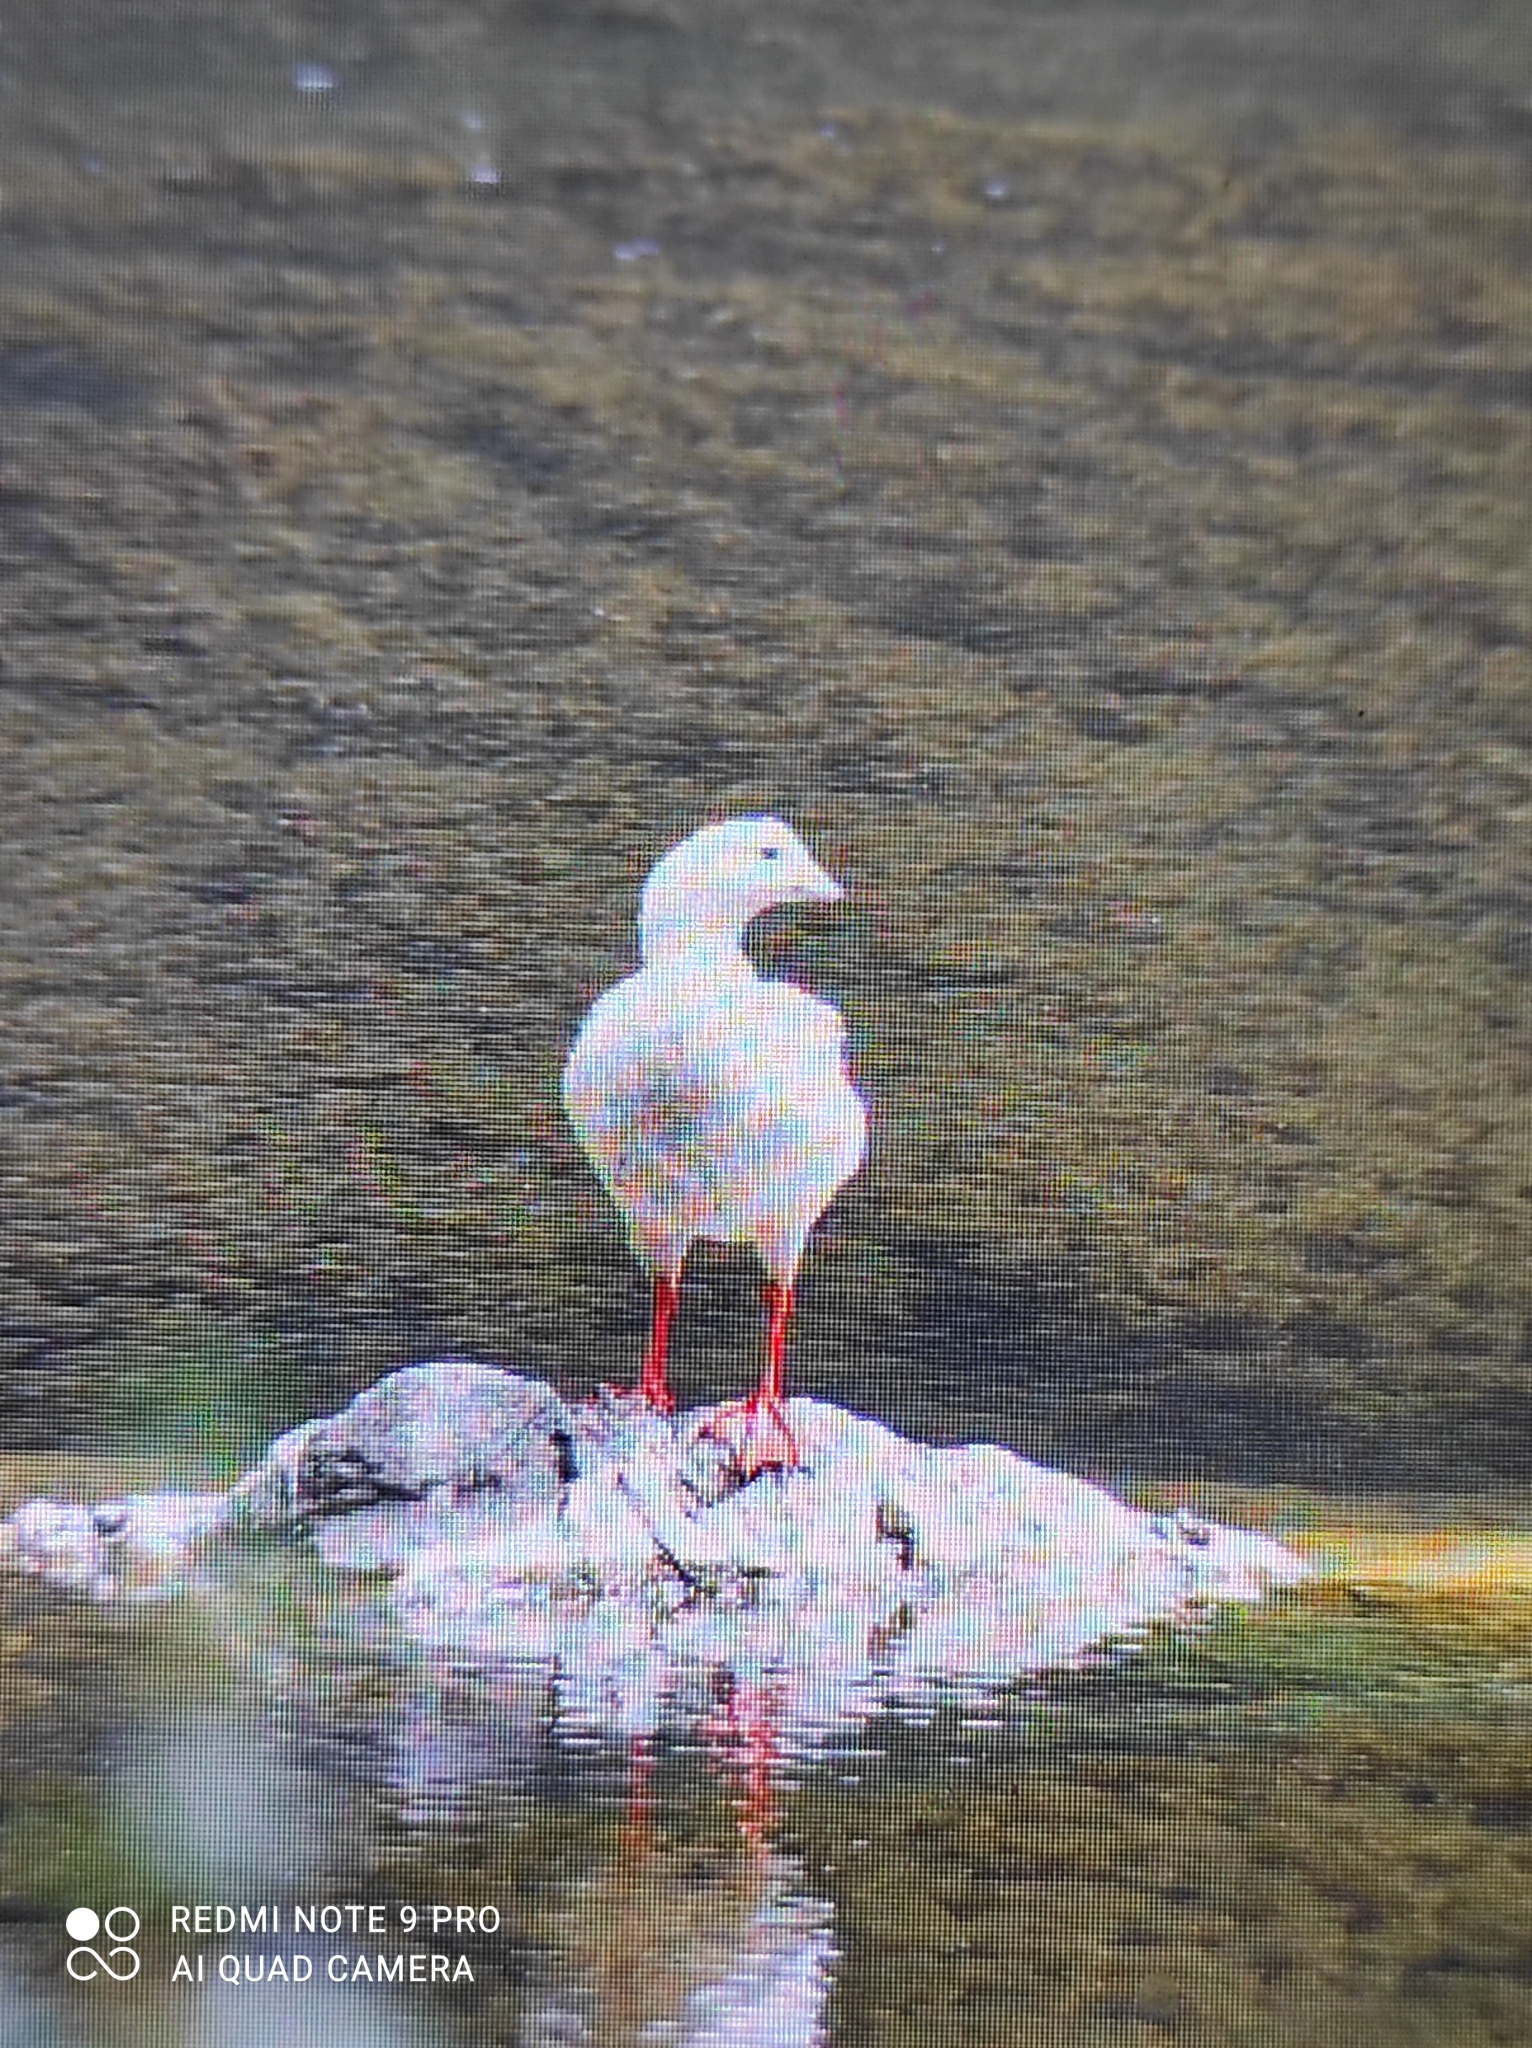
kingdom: Animalia
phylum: Chordata
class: Aves
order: Anseriformes
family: Anatidae
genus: Chloephaga
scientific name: Chloephaga melanoptera
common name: Andean goose
